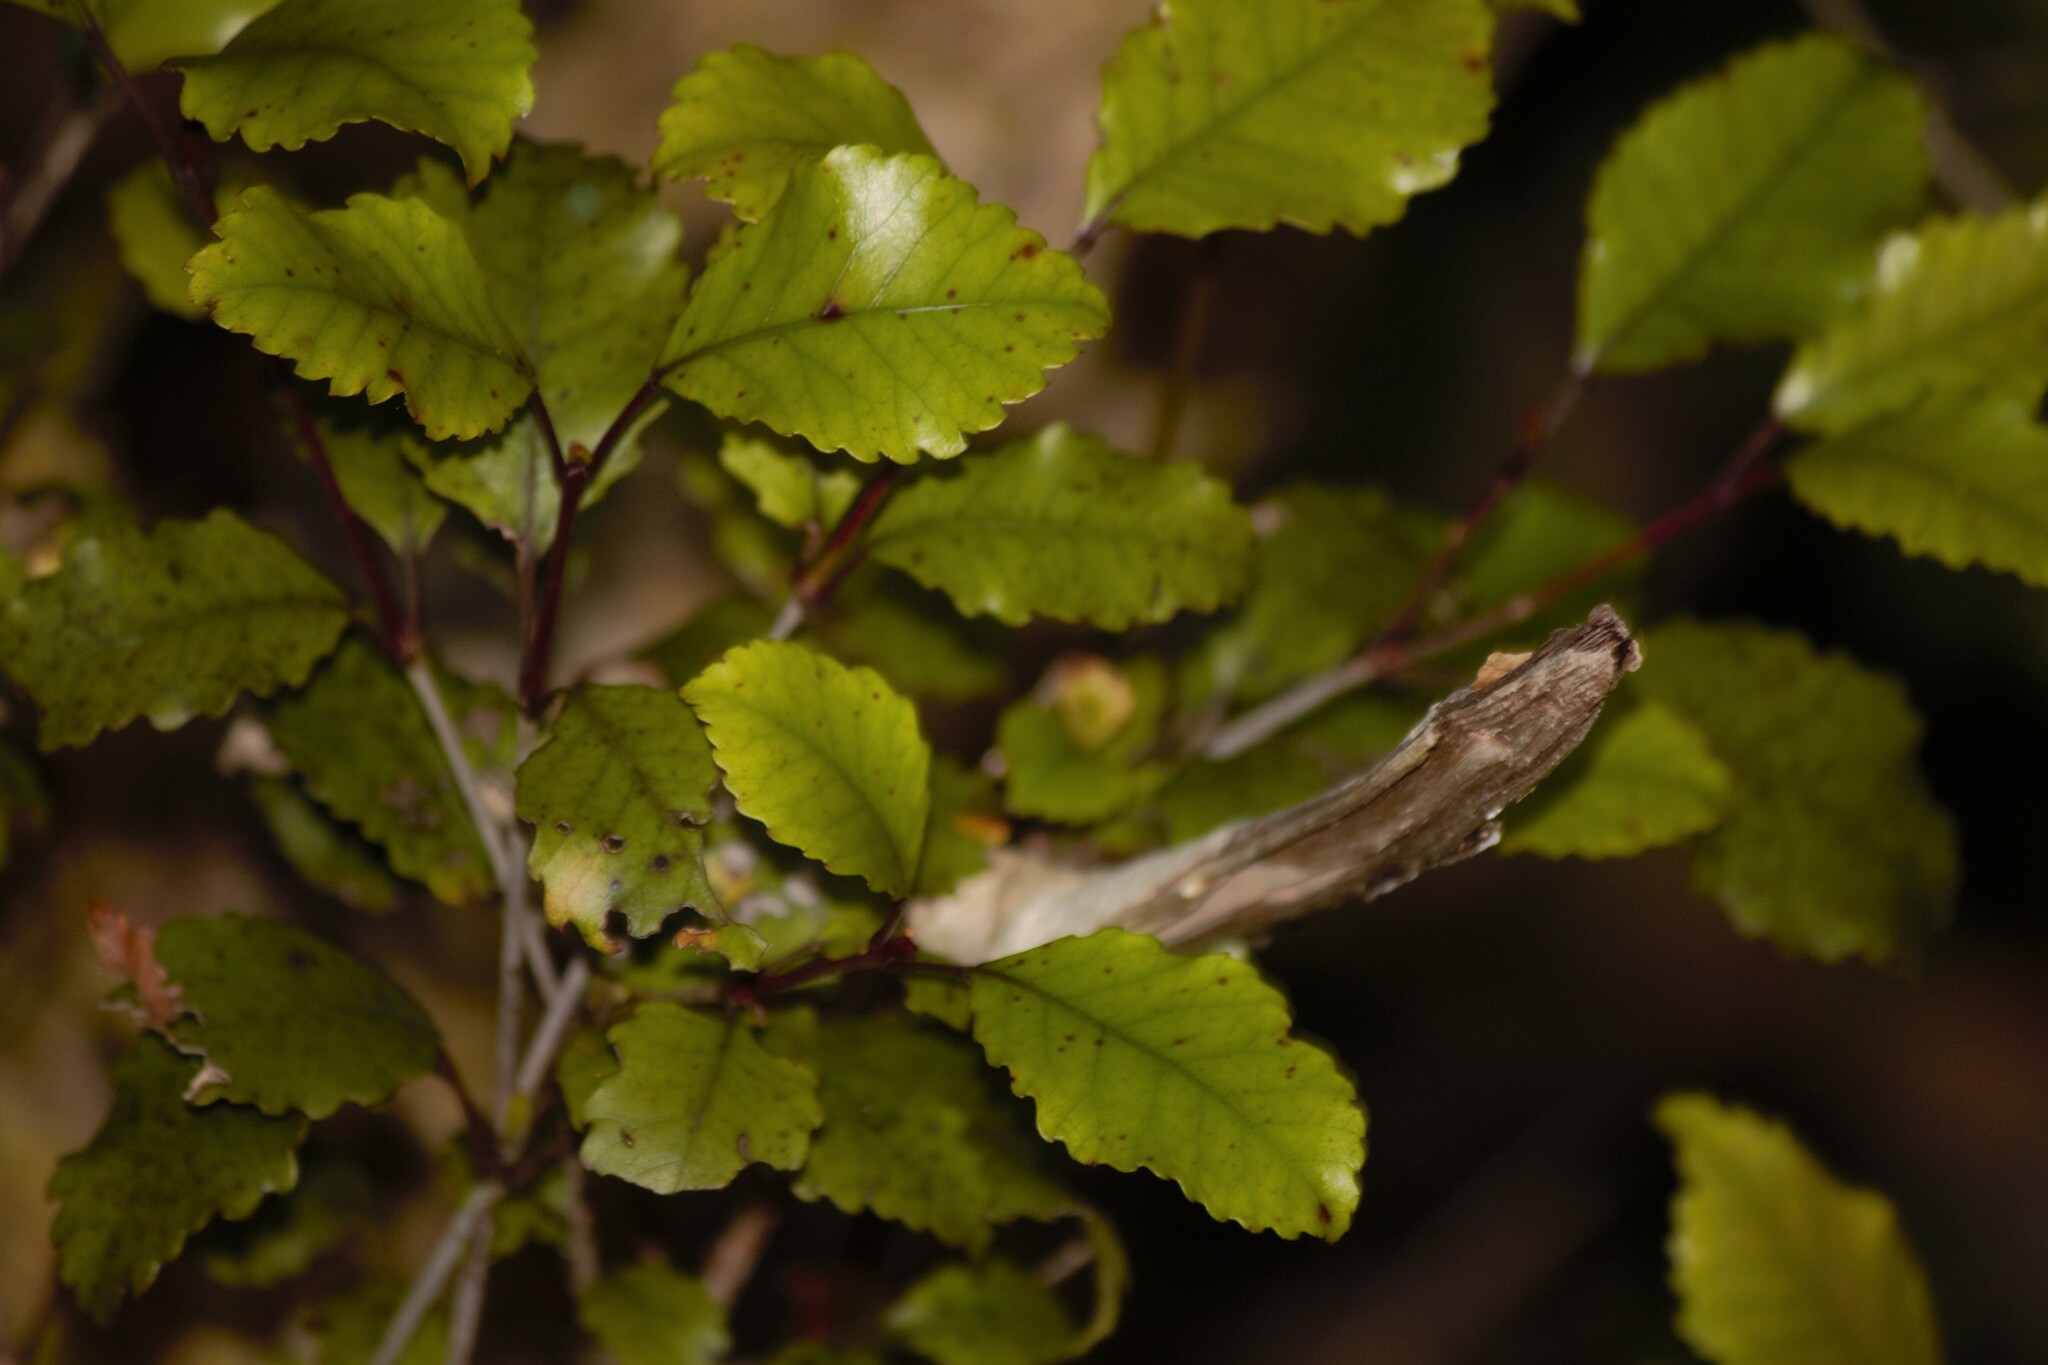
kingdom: Plantae
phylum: Tracheophyta
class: Magnoliopsida
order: Oxalidales
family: Cunoniaceae
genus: Pterophylla
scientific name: Pterophylla racemosa
